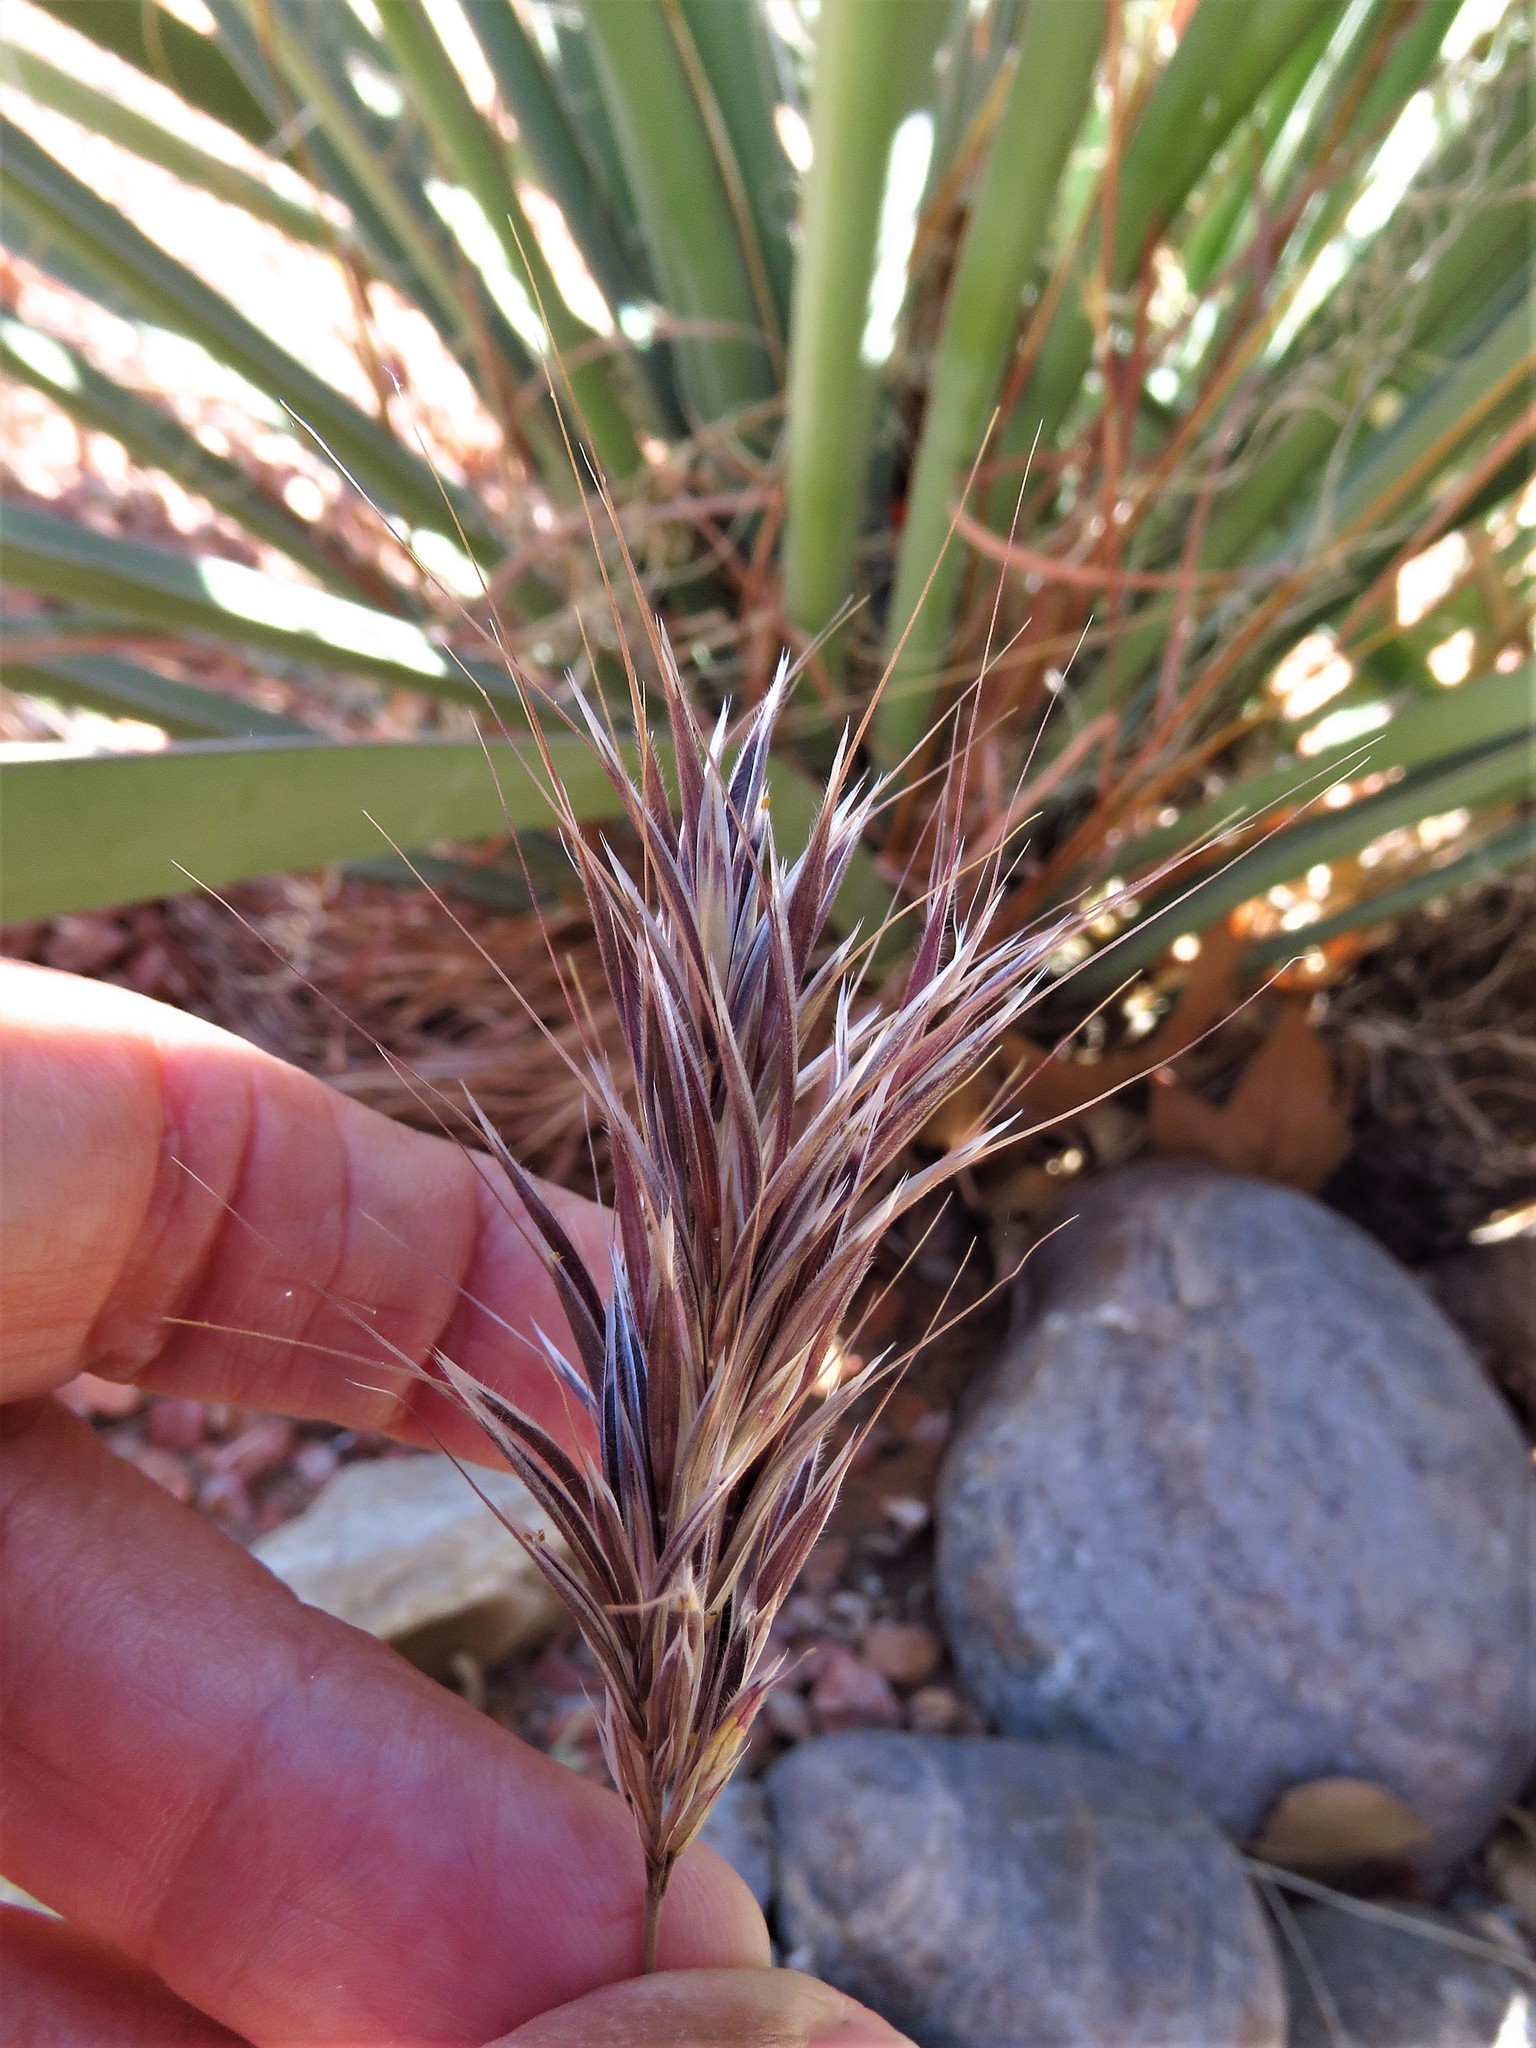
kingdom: Plantae
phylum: Tracheophyta
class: Liliopsida
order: Poales
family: Poaceae
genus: Bromus
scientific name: Bromus rubens
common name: Red brome
